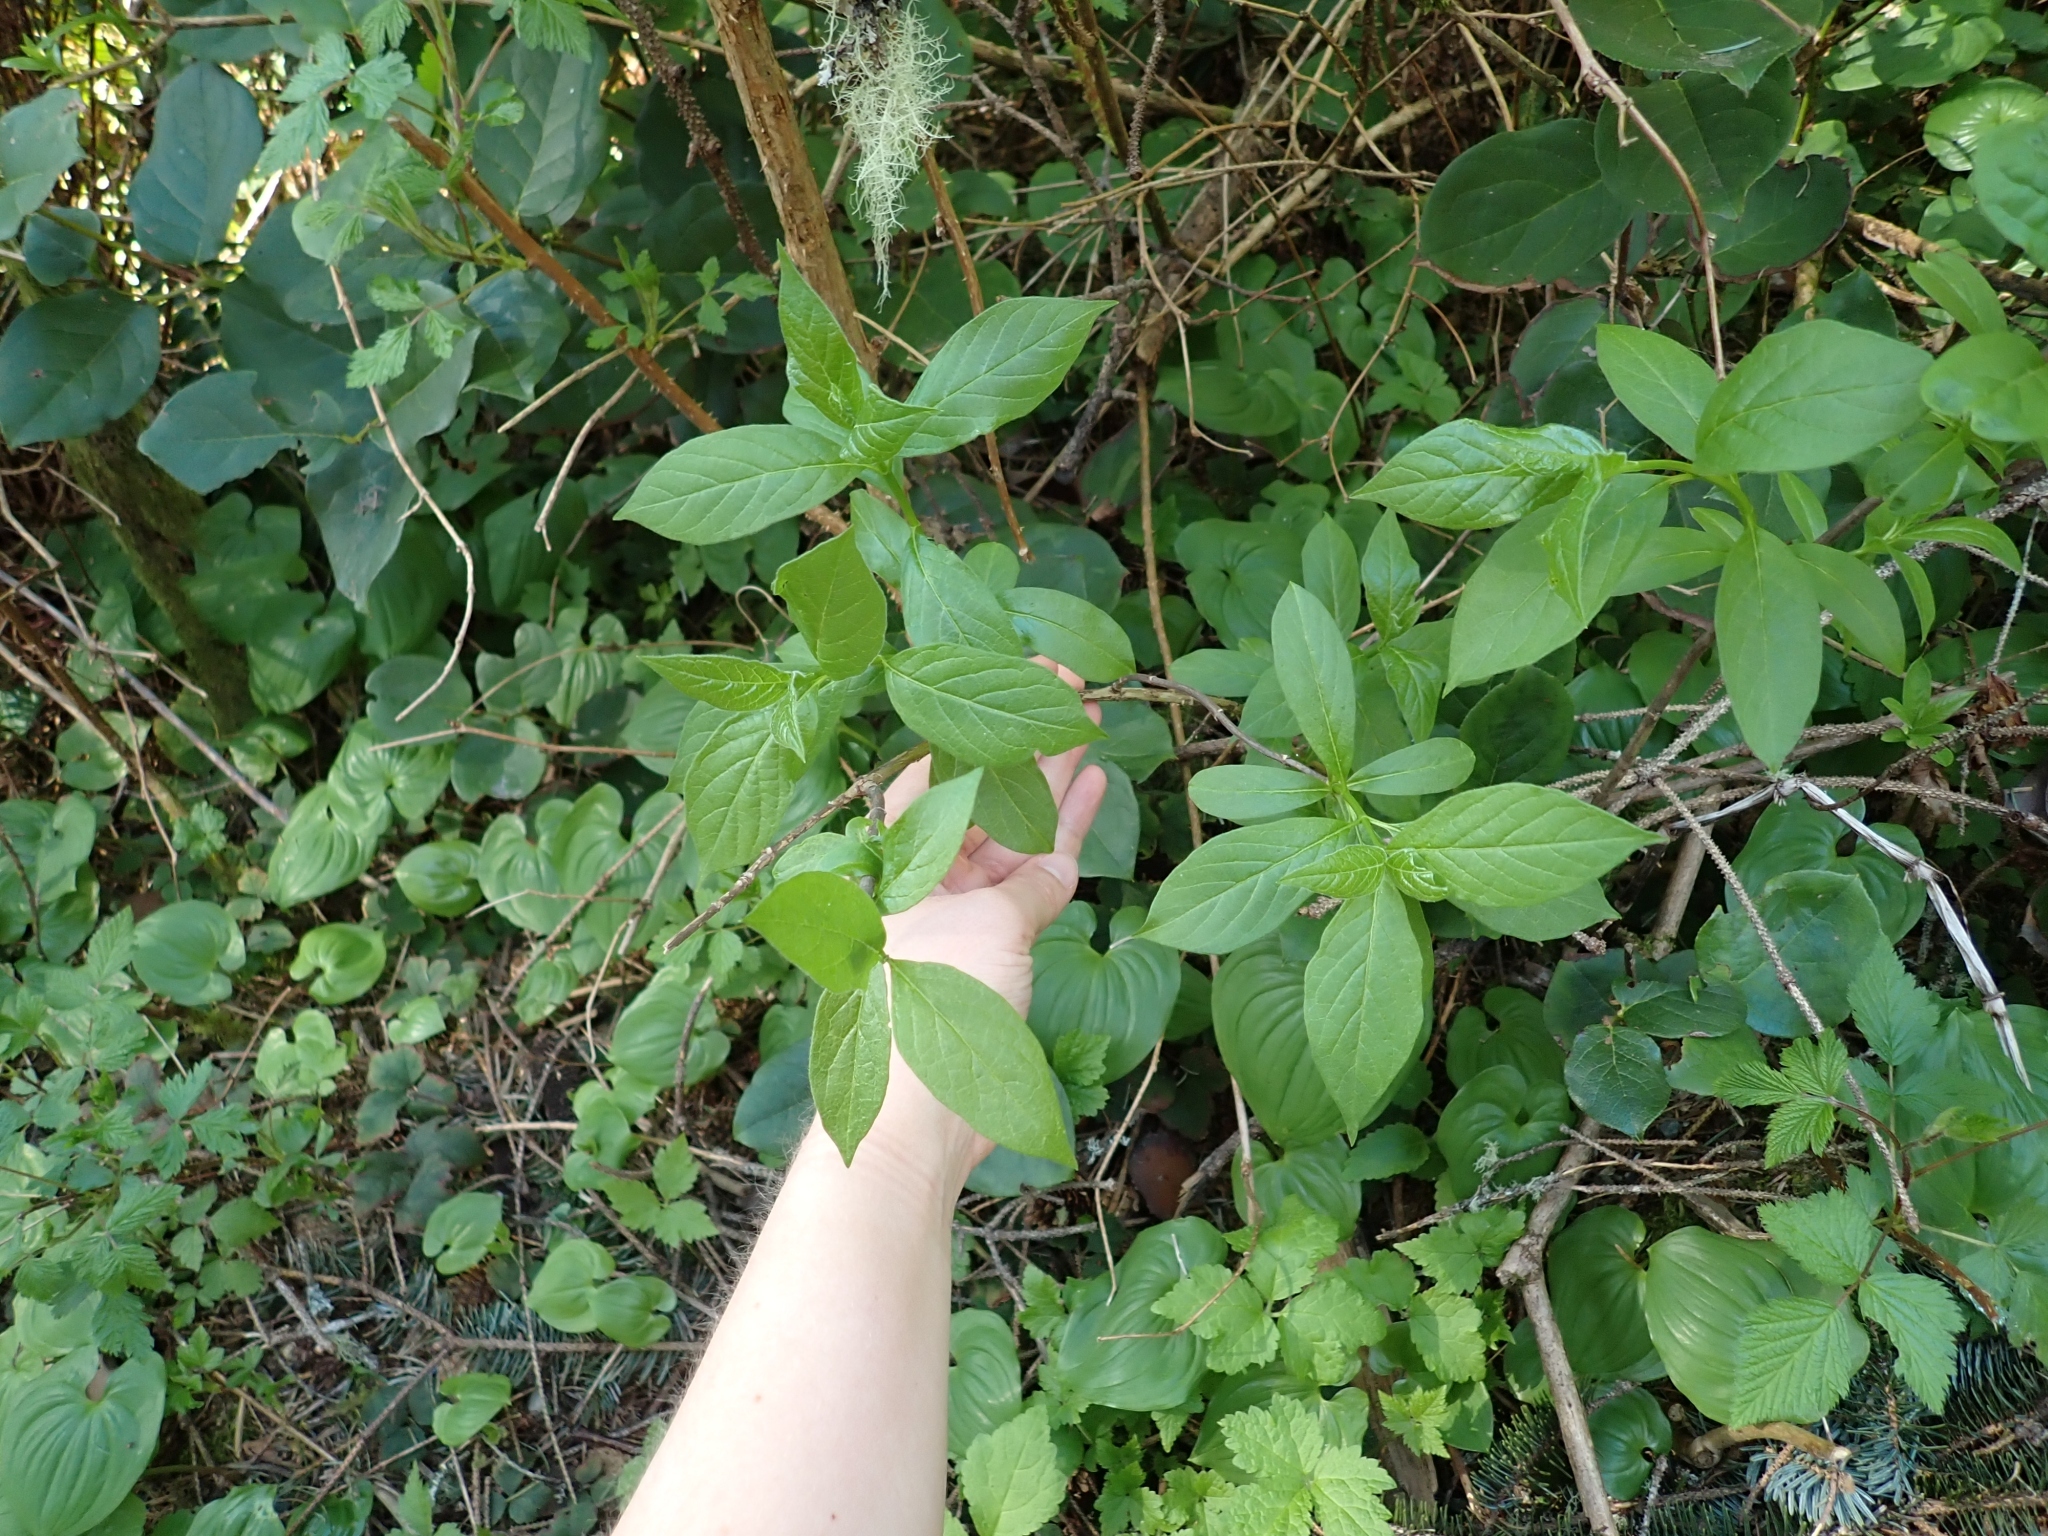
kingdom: Plantae
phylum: Tracheophyta
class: Magnoliopsida
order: Dipsacales
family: Caprifoliaceae
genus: Lonicera
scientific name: Lonicera involucrata
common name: Californian honeysuckle
